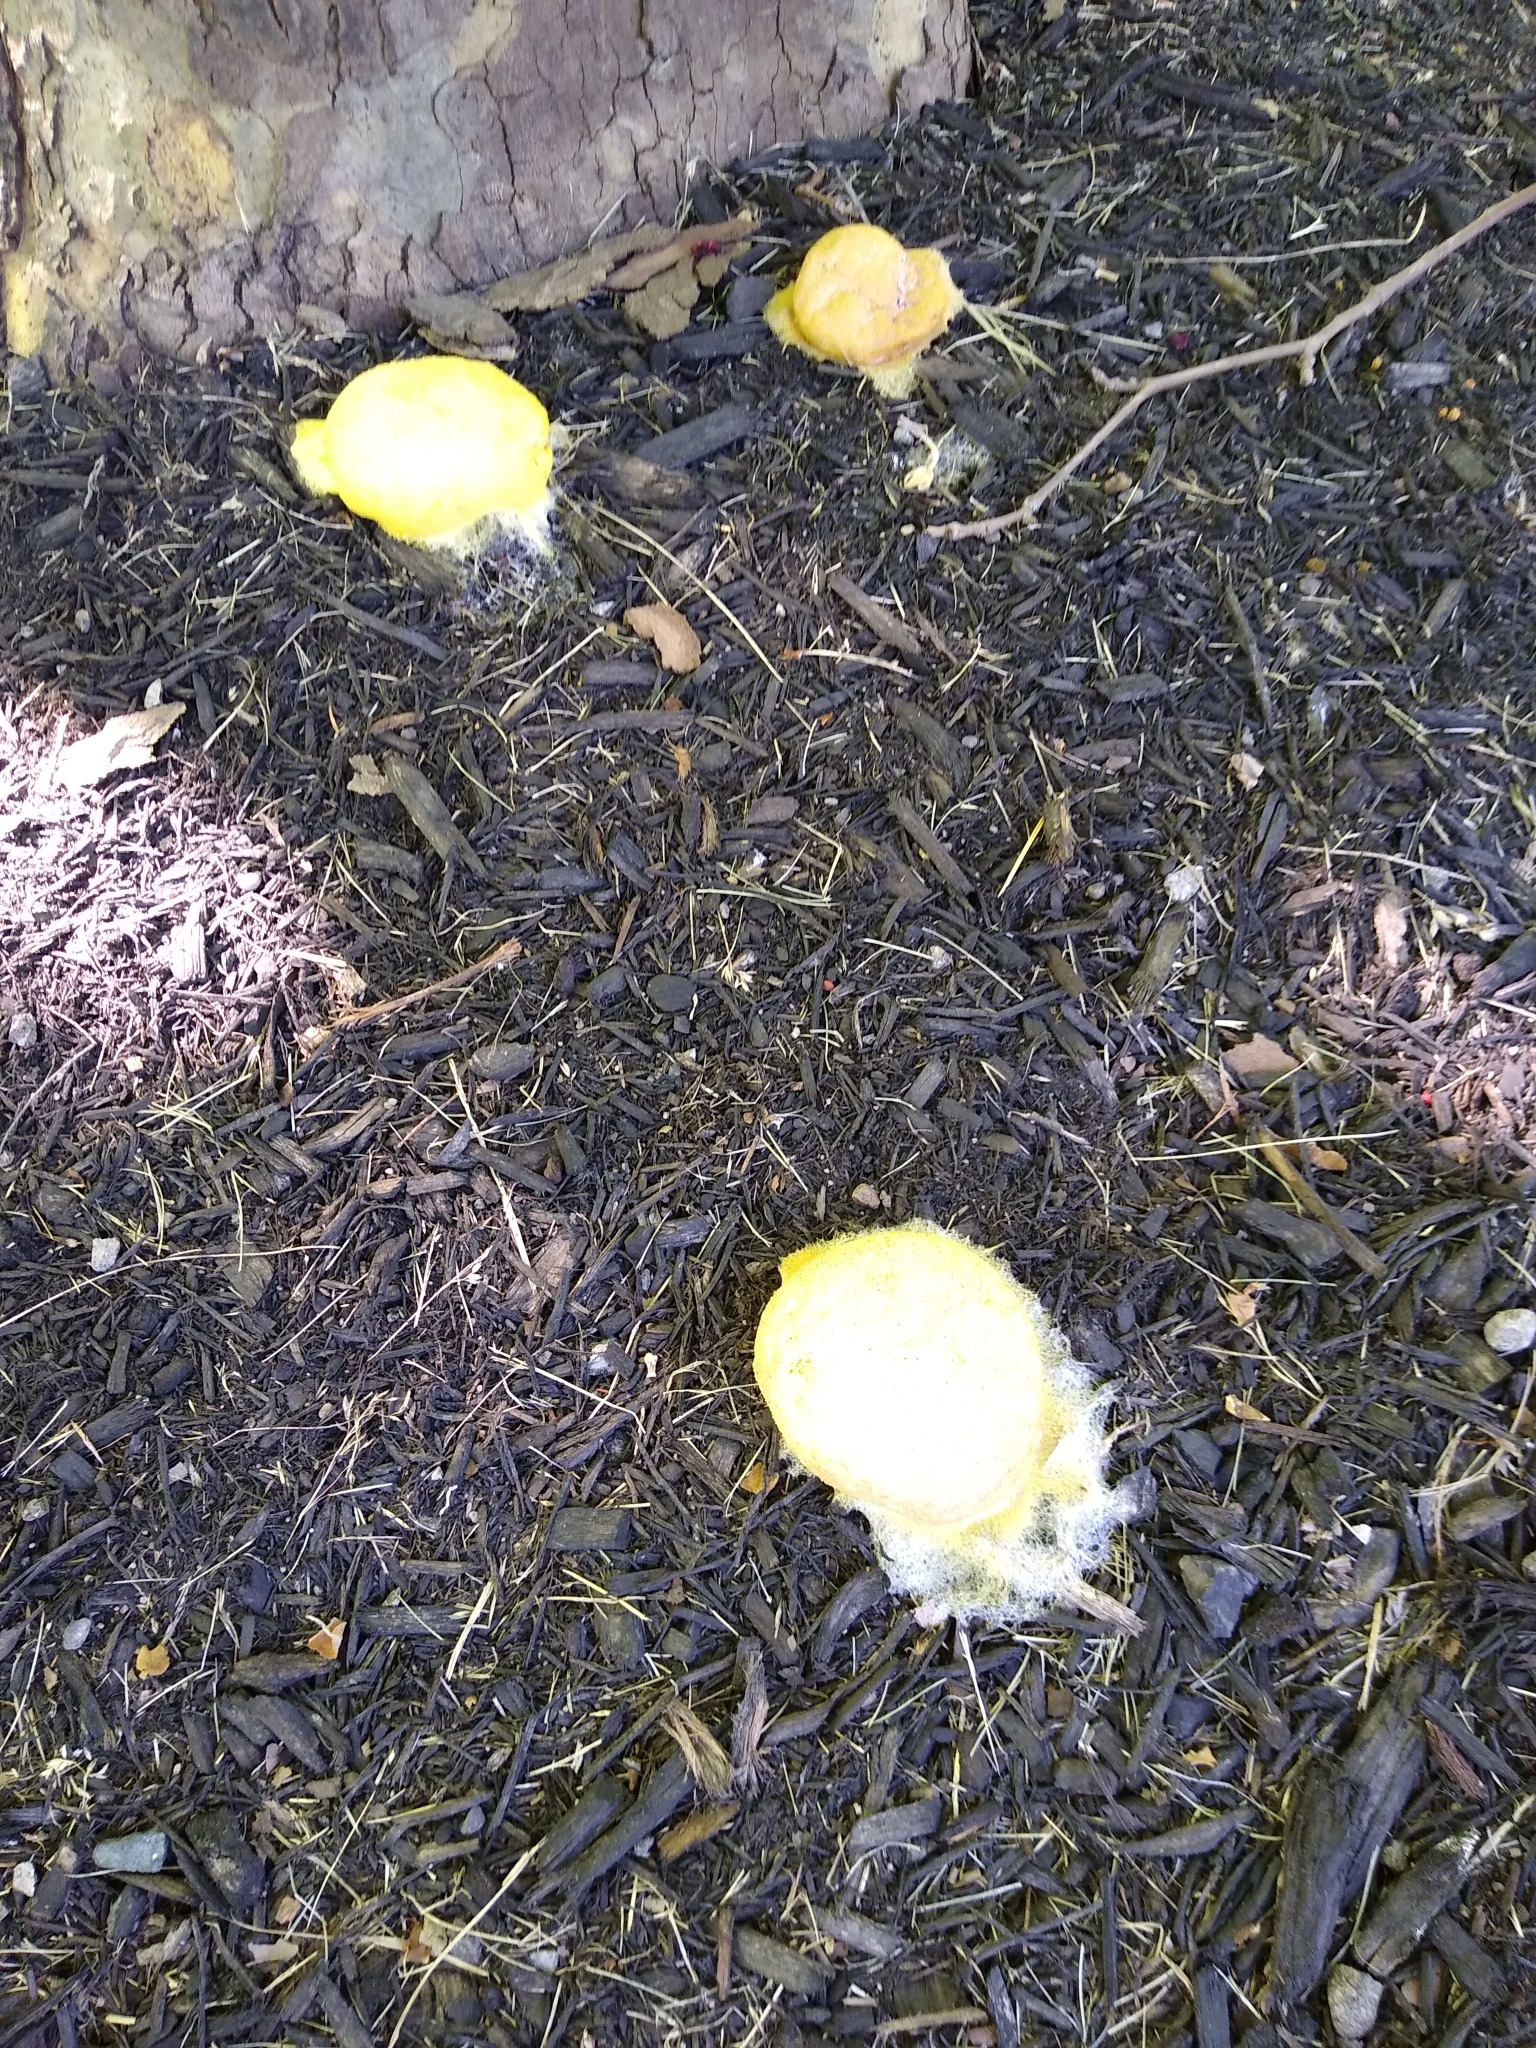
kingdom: Protozoa
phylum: Mycetozoa
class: Myxomycetes
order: Physarales
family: Physaraceae
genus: Fuligo
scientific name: Fuligo septica
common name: Dog vomit slime mold
